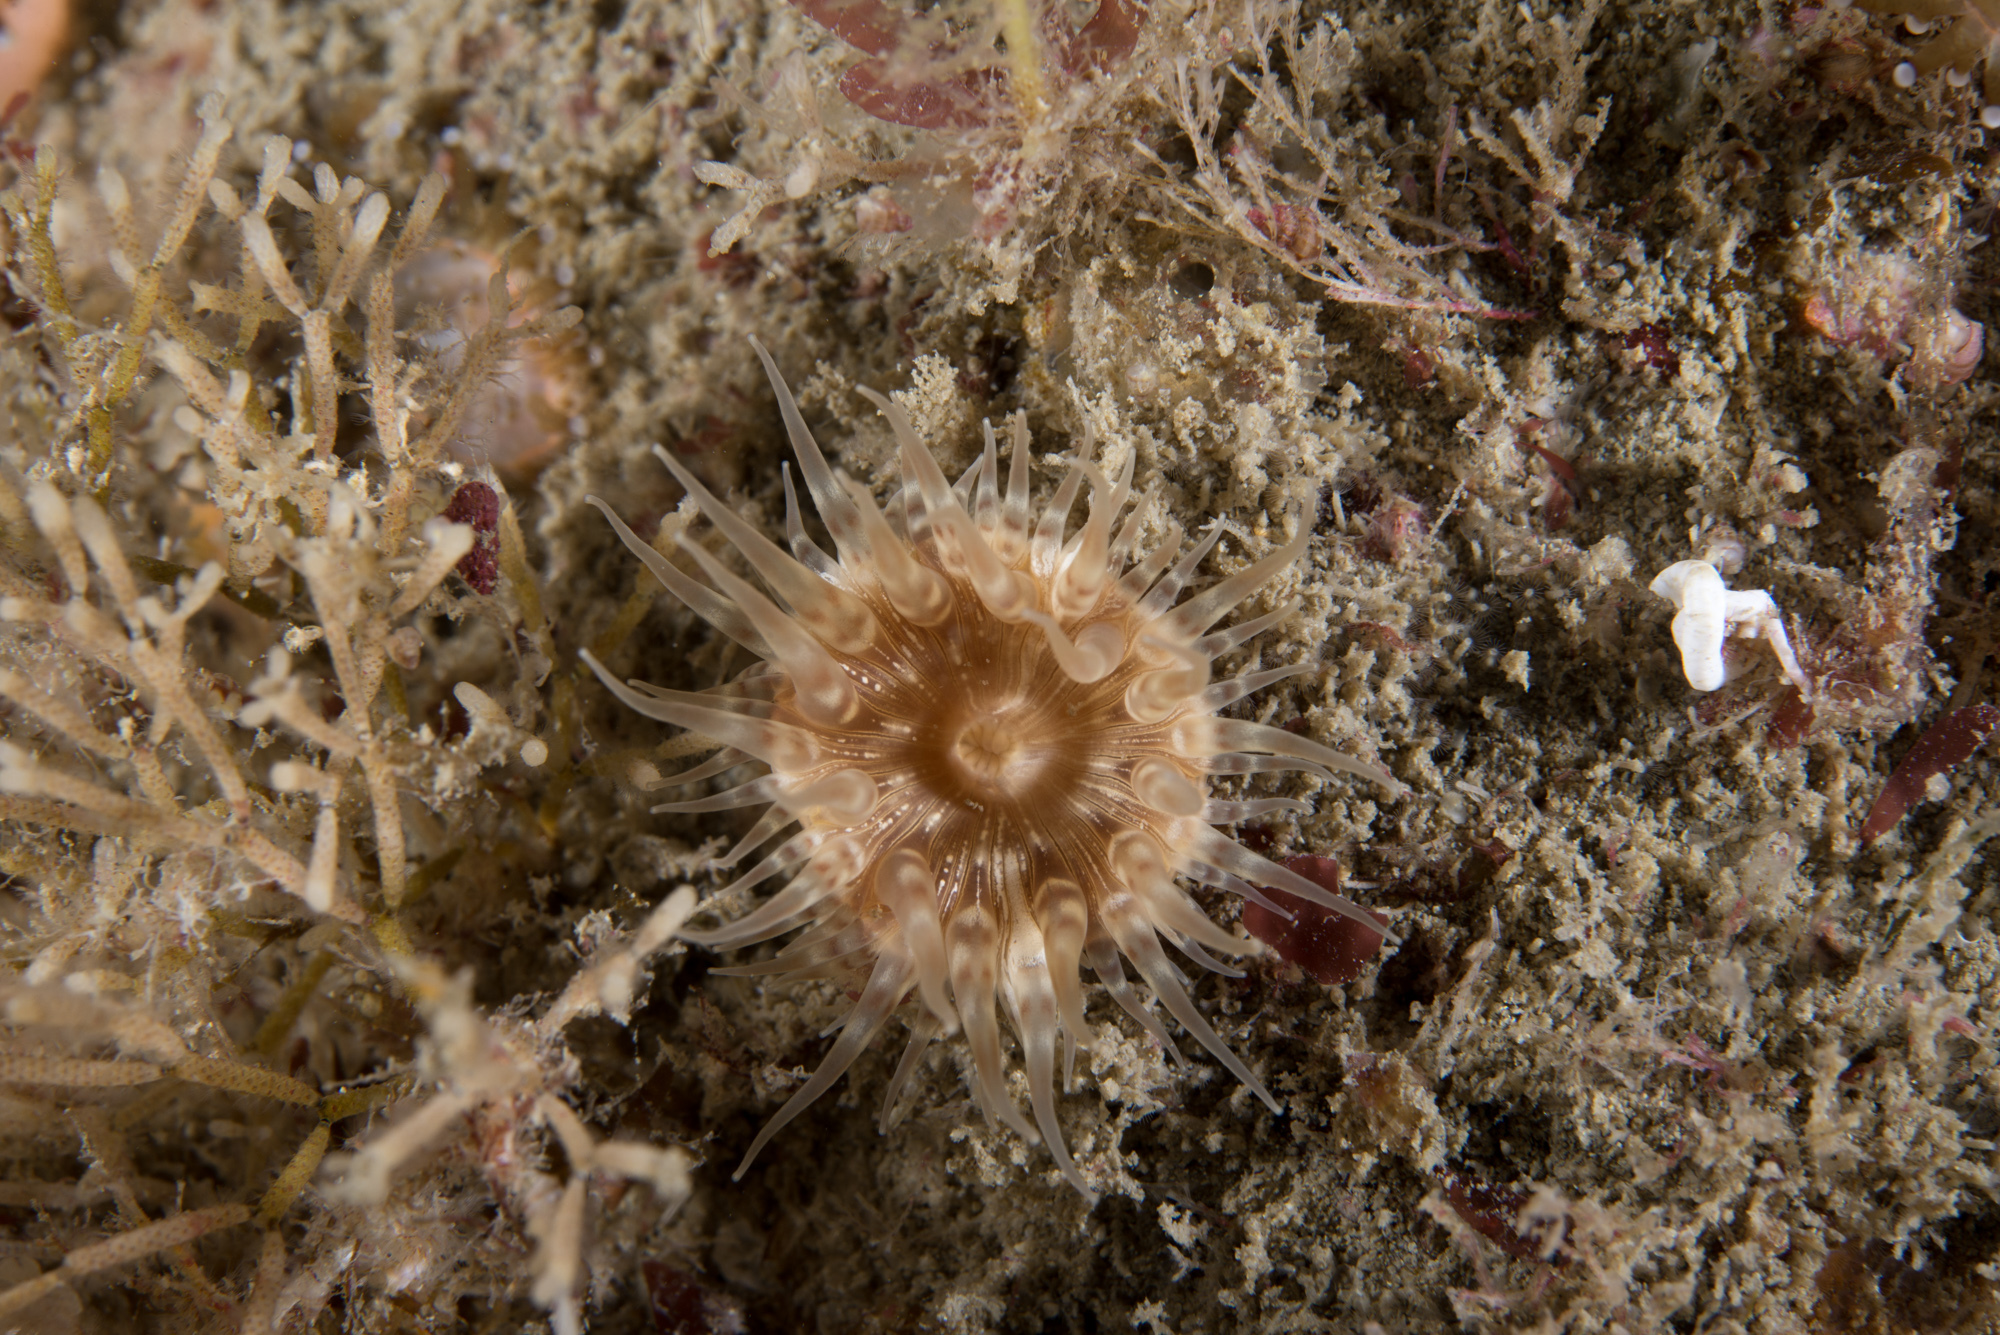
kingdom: Animalia
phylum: Cnidaria
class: Anthozoa
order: Actiniaria
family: Hormathiidae
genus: Hormathia
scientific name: Hormathia coronata
